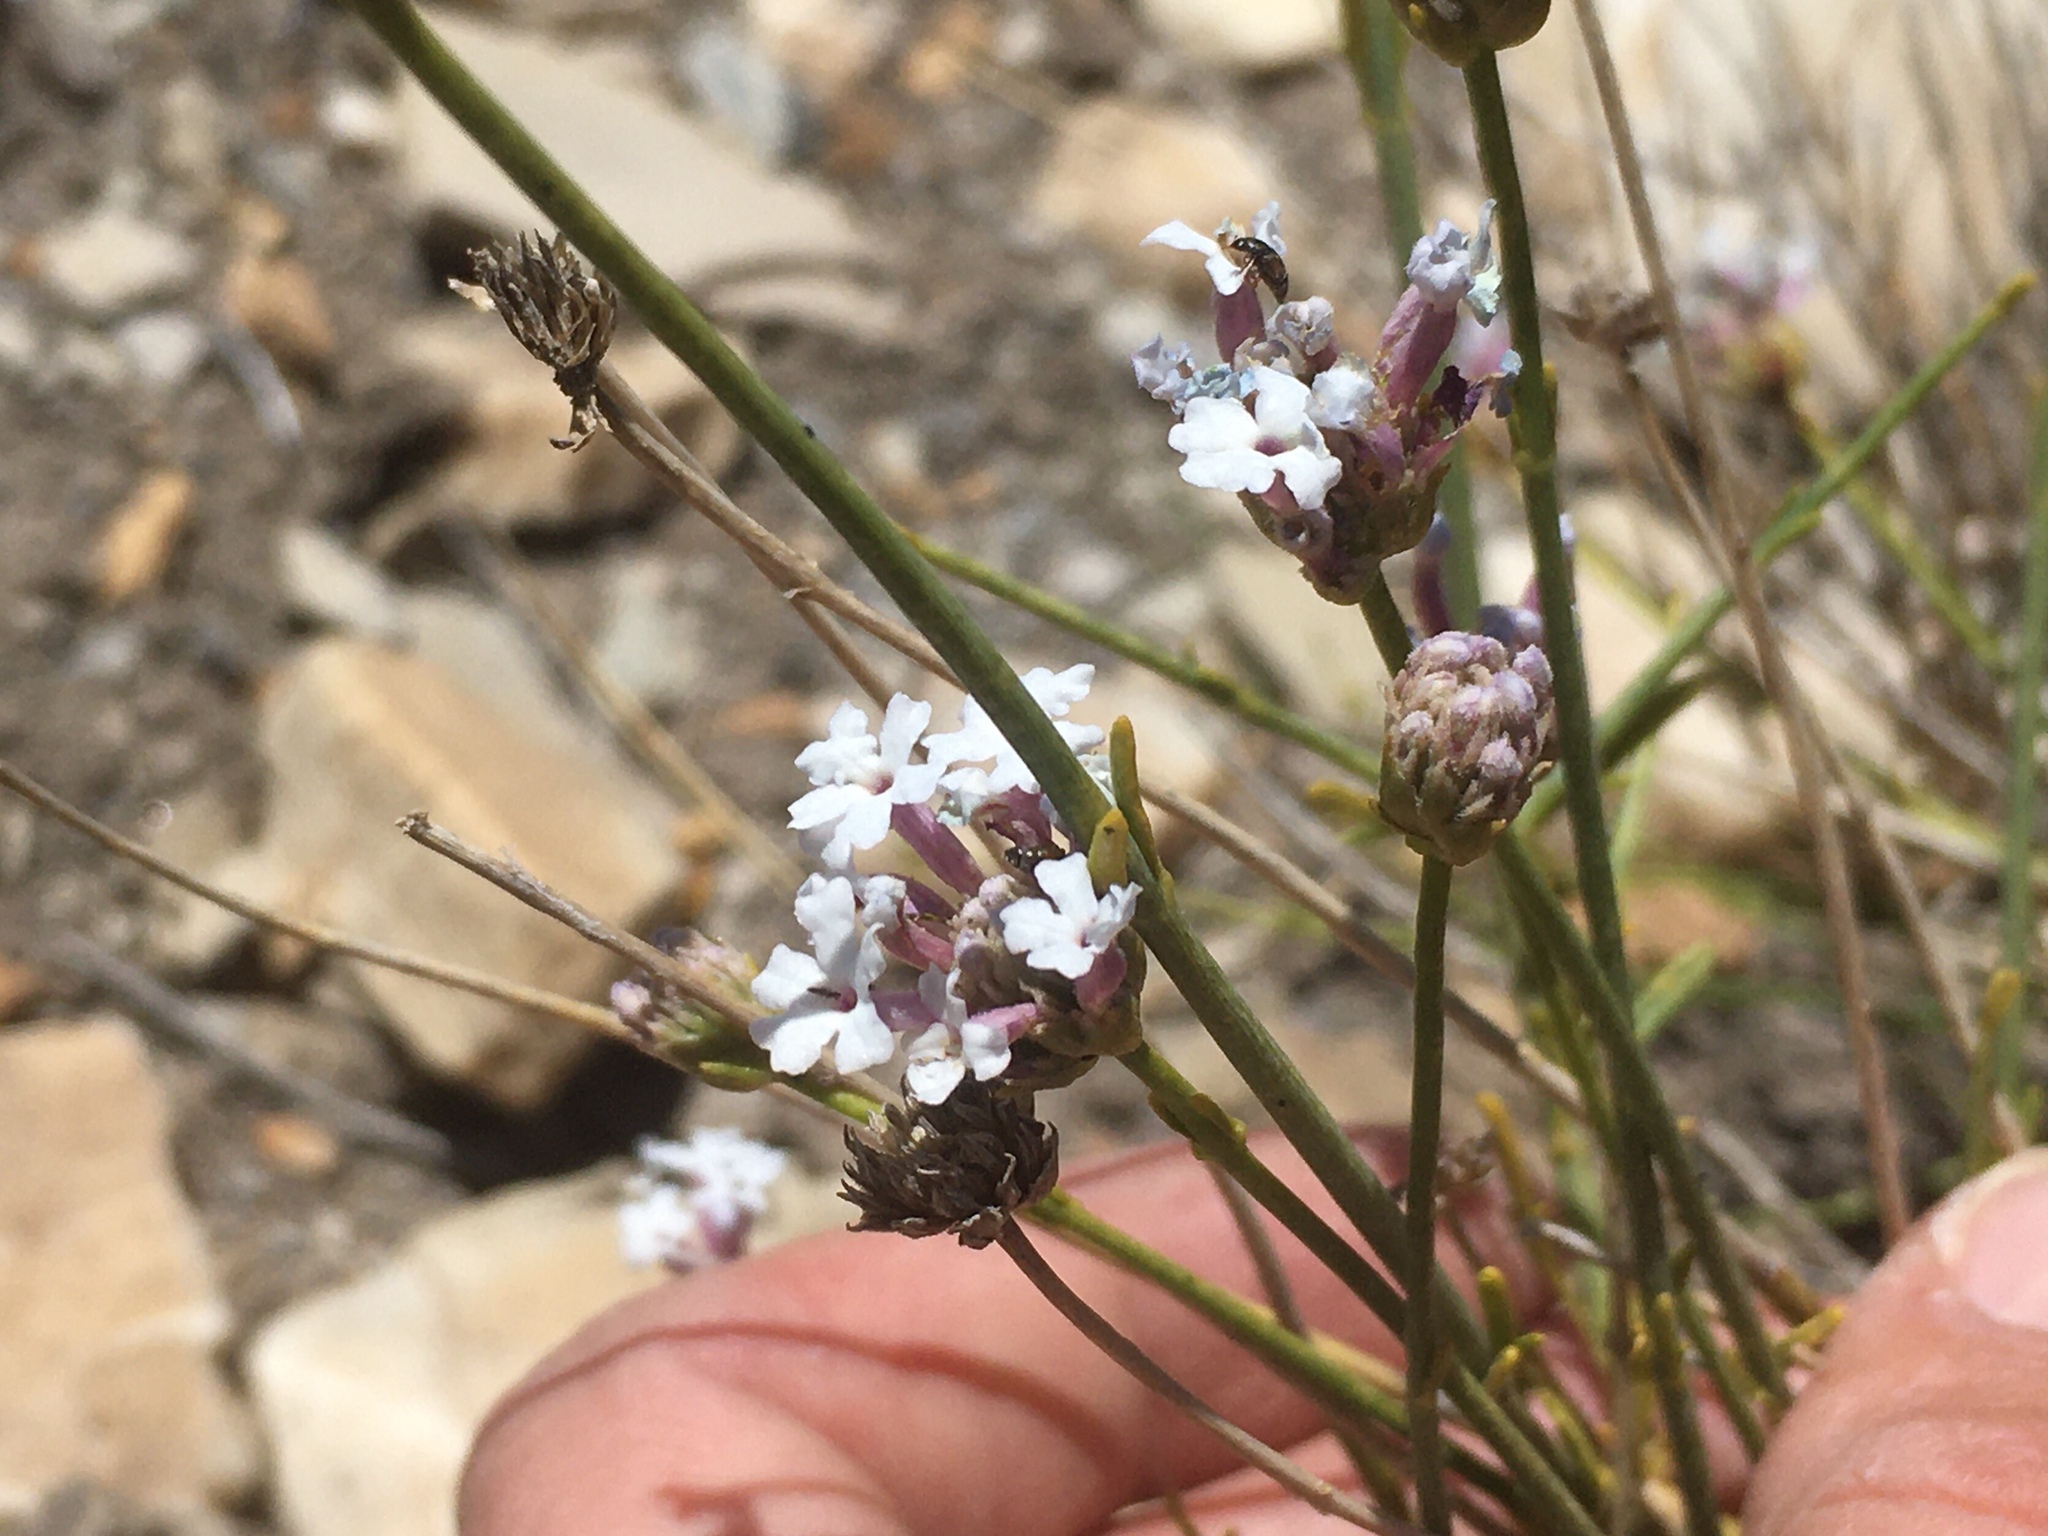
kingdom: Plantae
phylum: Tracheophyta
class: Magnoliopsida
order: Lamiales
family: Verbenaceae
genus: Junellia
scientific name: Junellia spathulata
